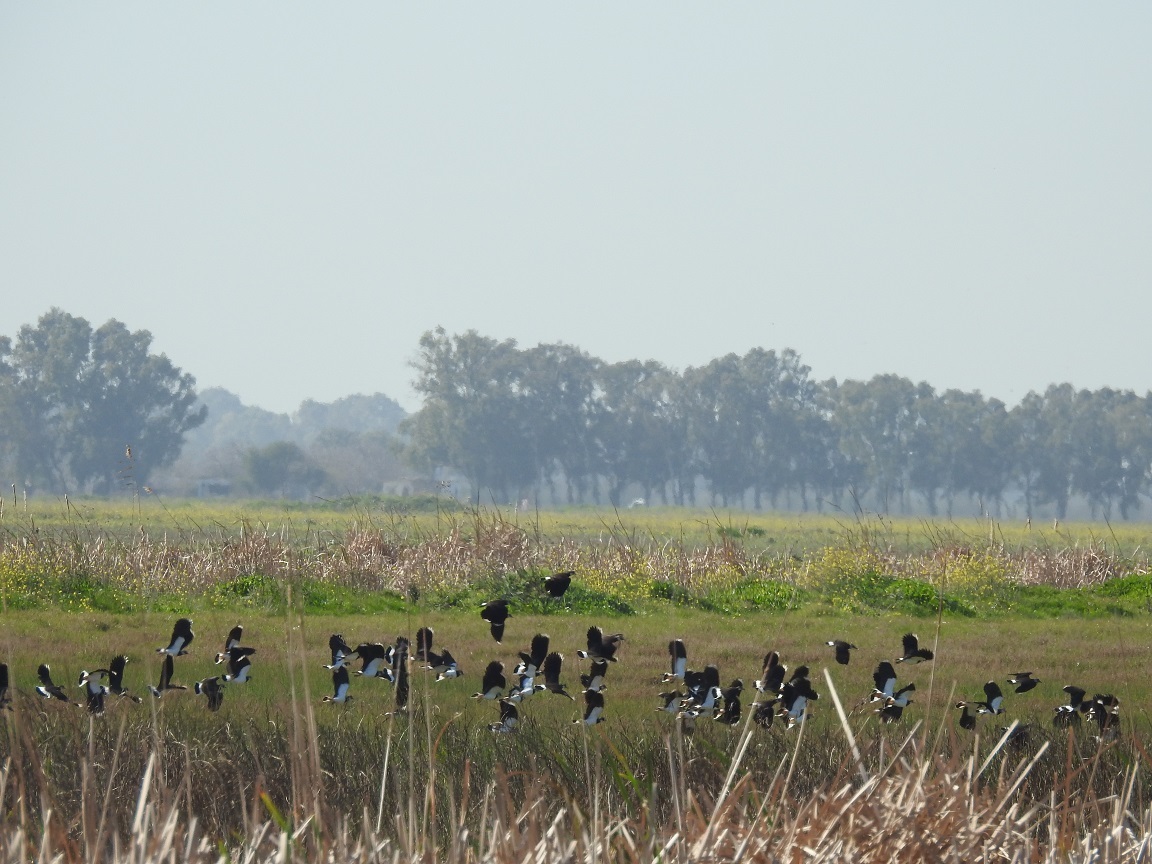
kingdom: Animalia
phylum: Chordata
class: Aves
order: Charadriiformes
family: Charadriidae
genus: Vanellus
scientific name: Vanellus vanellus
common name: Northern lapwing
